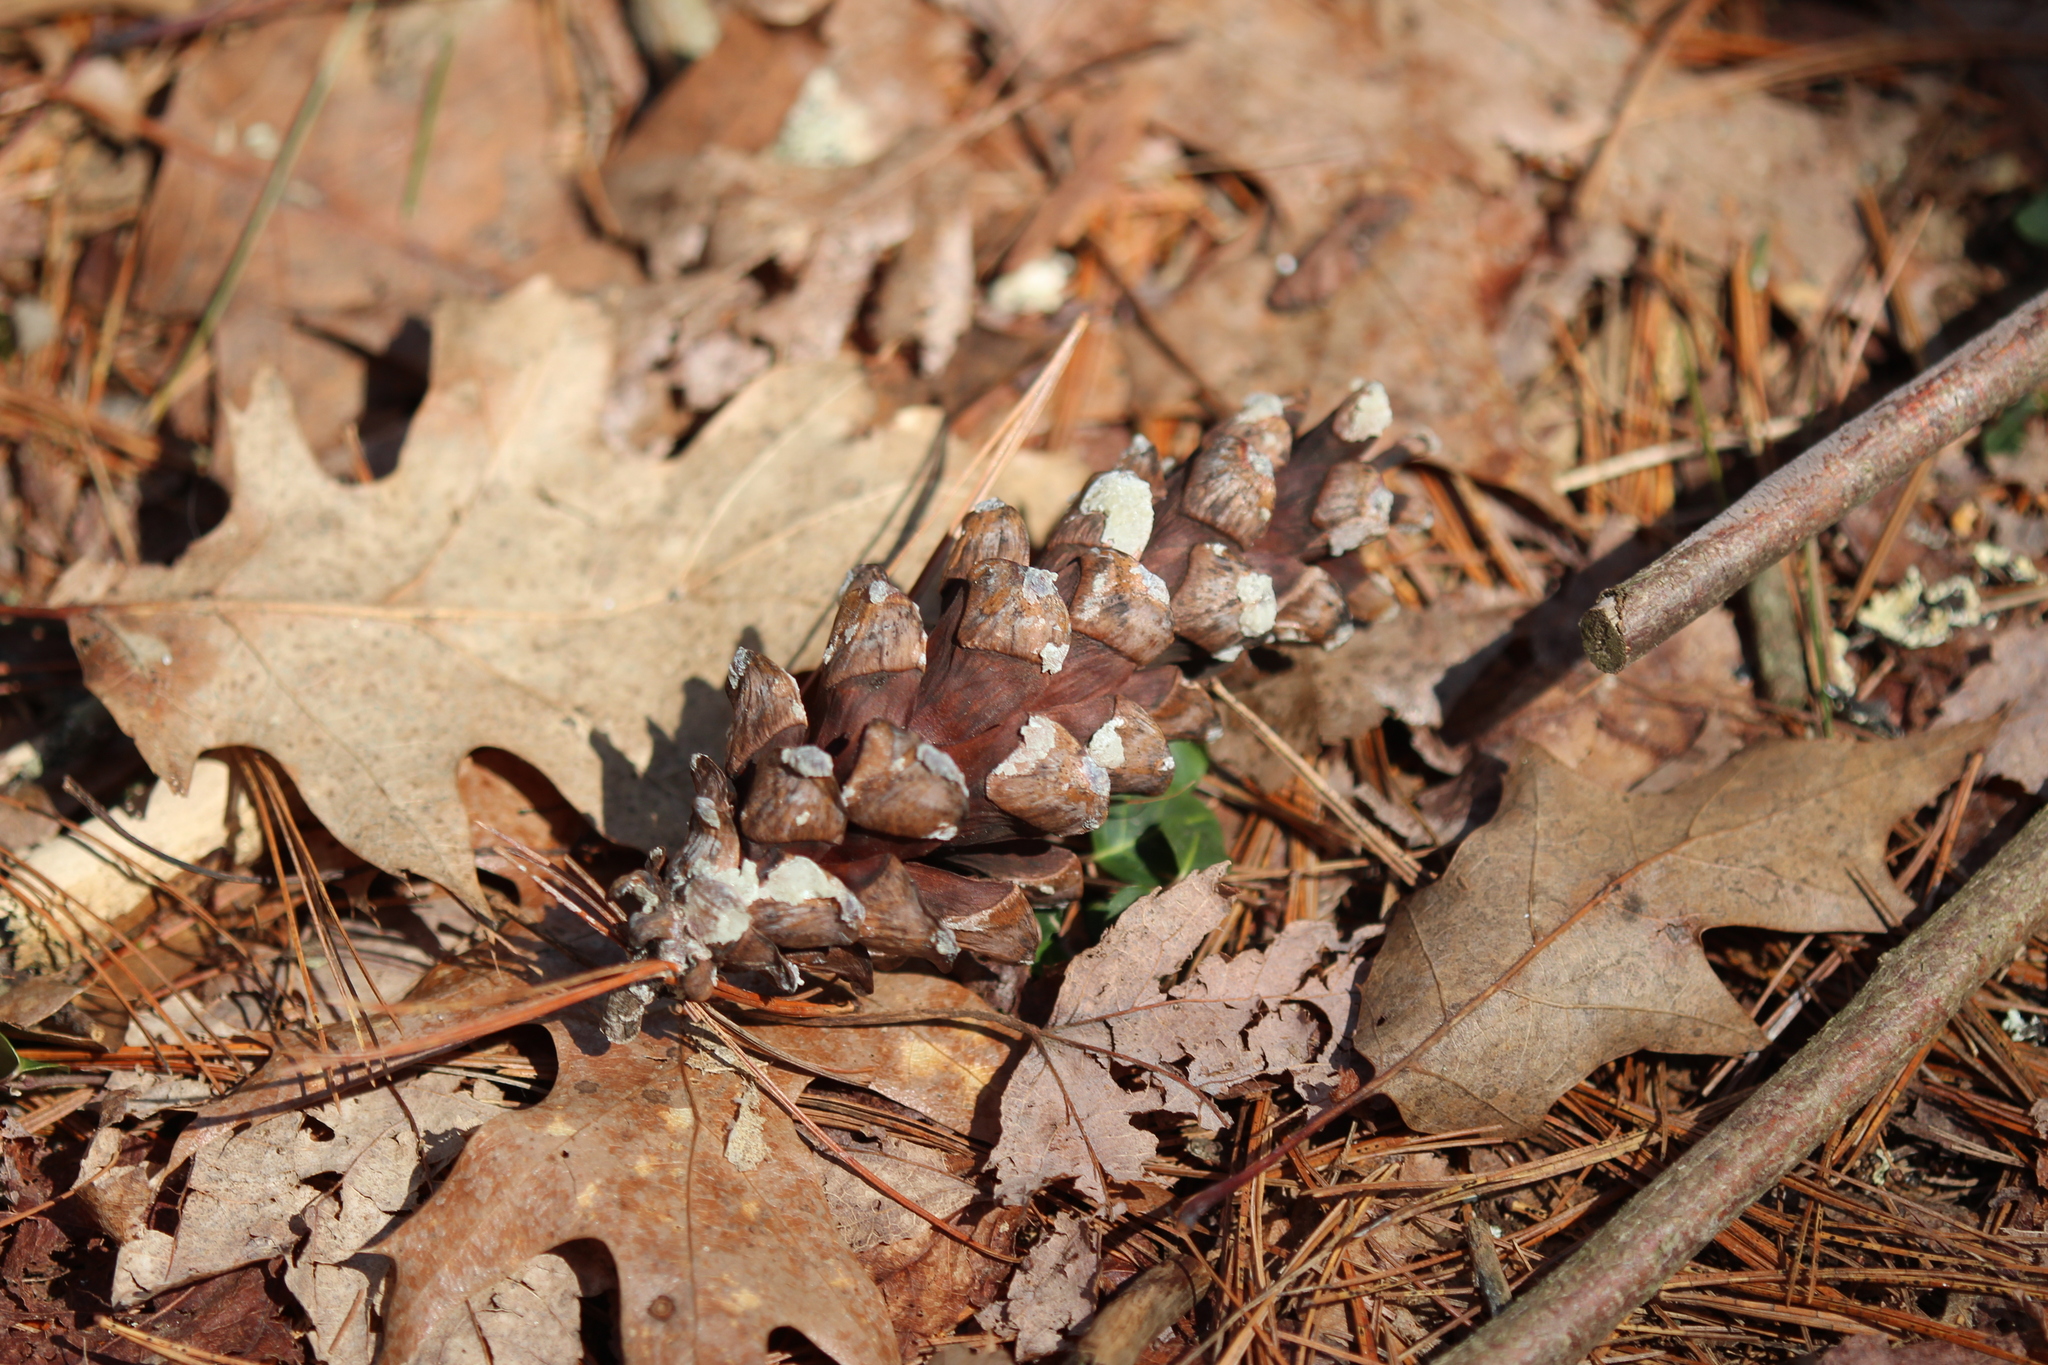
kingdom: Plantae
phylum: Tracheophyta
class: Pinopsida
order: Pinales
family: Pinaceae
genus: Pinus
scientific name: Pinus strobus
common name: Weymouth pine
